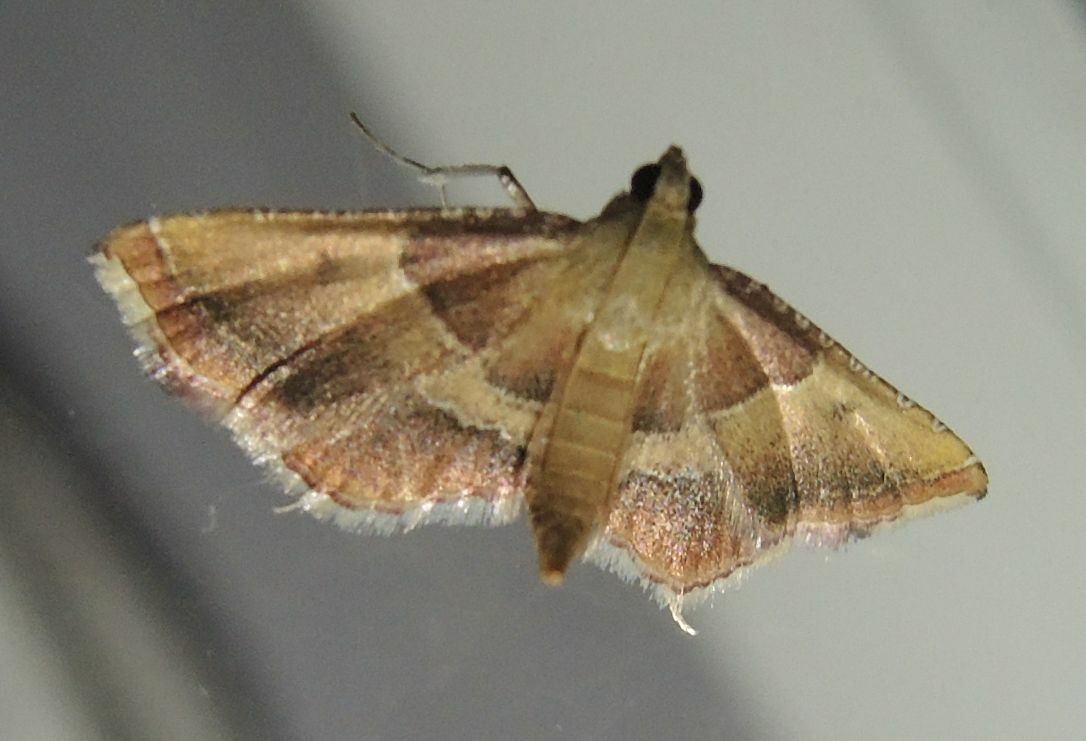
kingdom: Animalia
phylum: Arthropoda
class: Insecta
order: Lepidoptera
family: Pyralidae
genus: Endotricha
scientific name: Endotricha flammealis
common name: Rosy tabby
